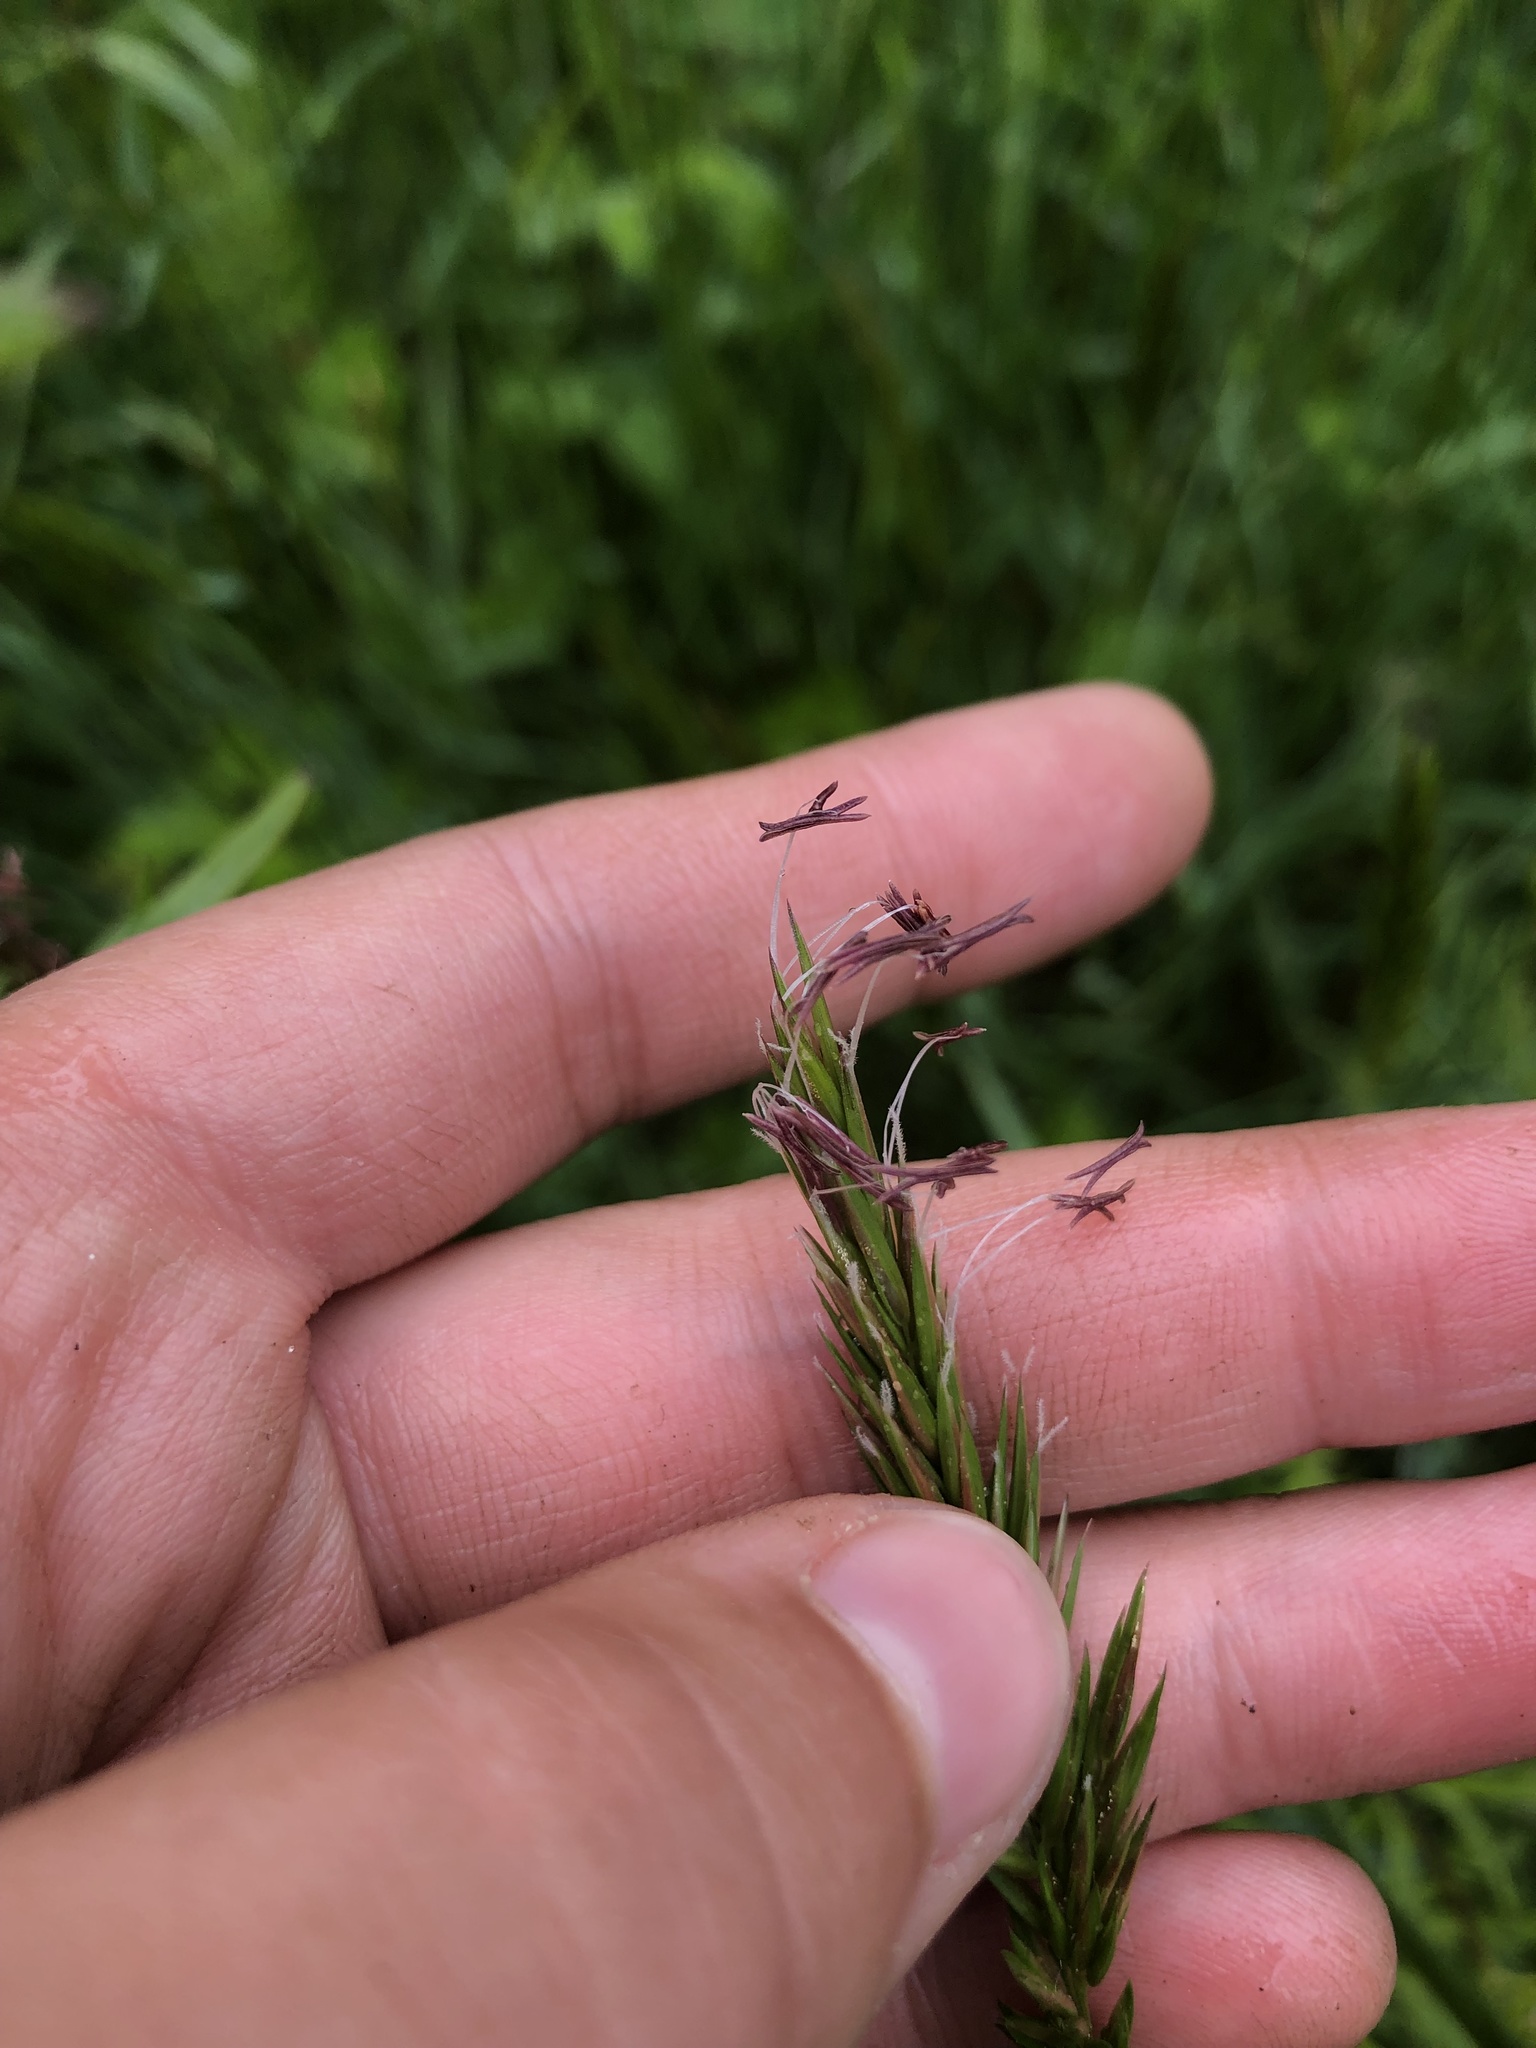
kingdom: Plantae
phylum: Tracheophyta
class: Liliopsida
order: Poales
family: Poaceae
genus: Anthoxanthum
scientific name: Anthoxanthum odoratum
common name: Sweet vernalgrass
